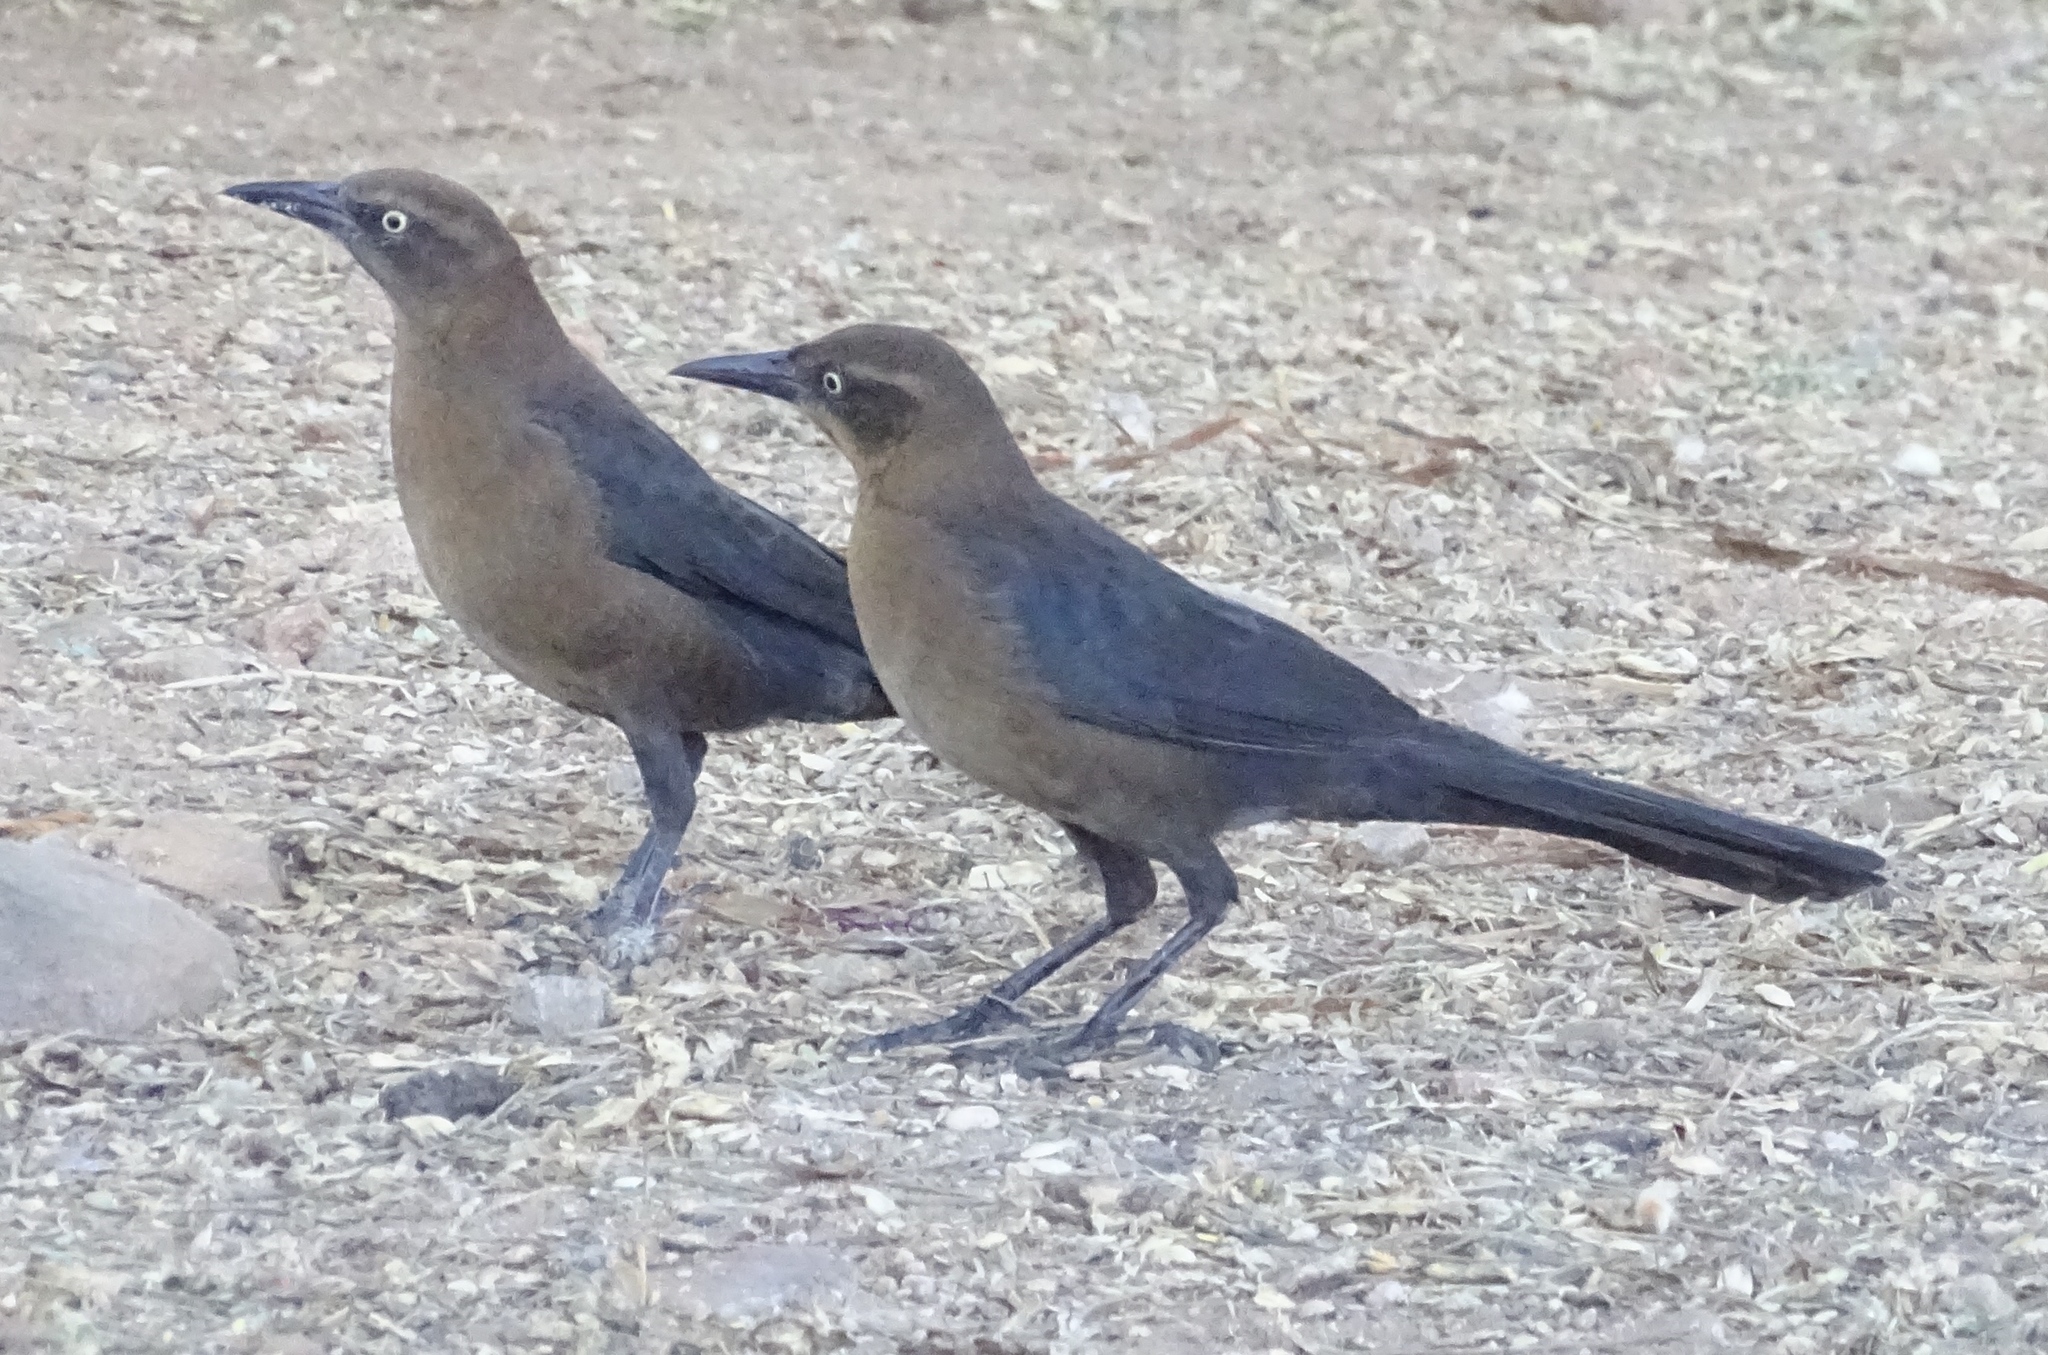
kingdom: Animalia
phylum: Chordata
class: Aves
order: Passeriformes
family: Icteridae
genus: Quiscalus
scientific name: Quiscalus mexicanus
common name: Great-tailed grackle
